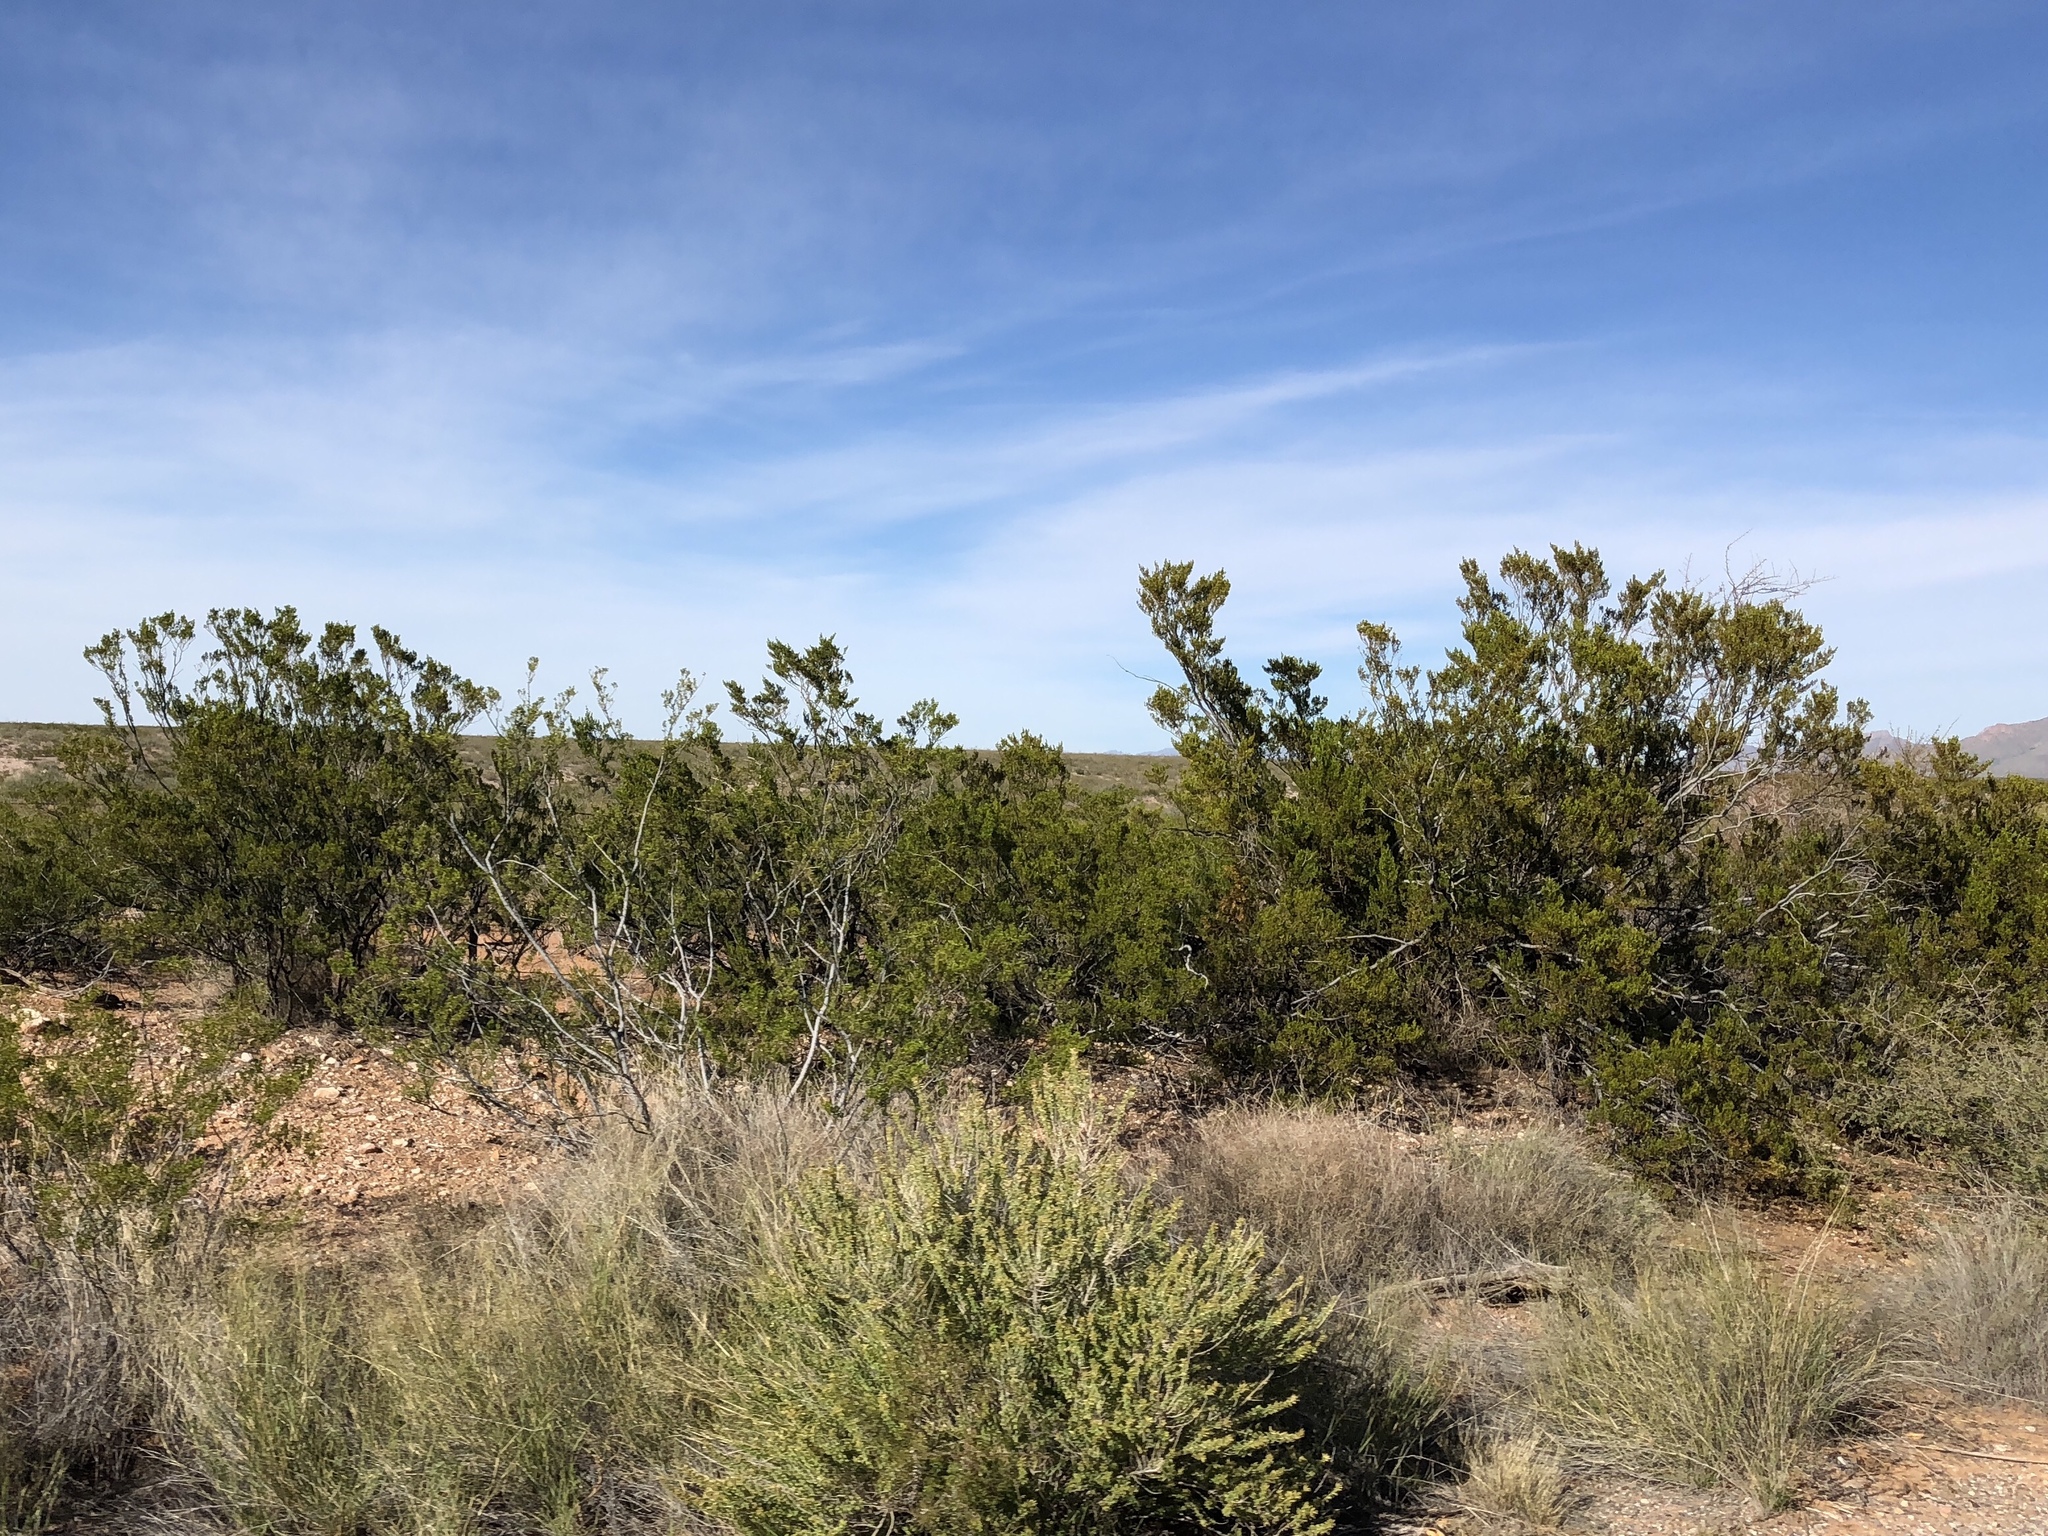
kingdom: Plantae
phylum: Tracheophyta
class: Magnoliopsida
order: Zygophyllales
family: Zygophyllaceae
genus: Larrea
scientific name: Larrea tridentata
